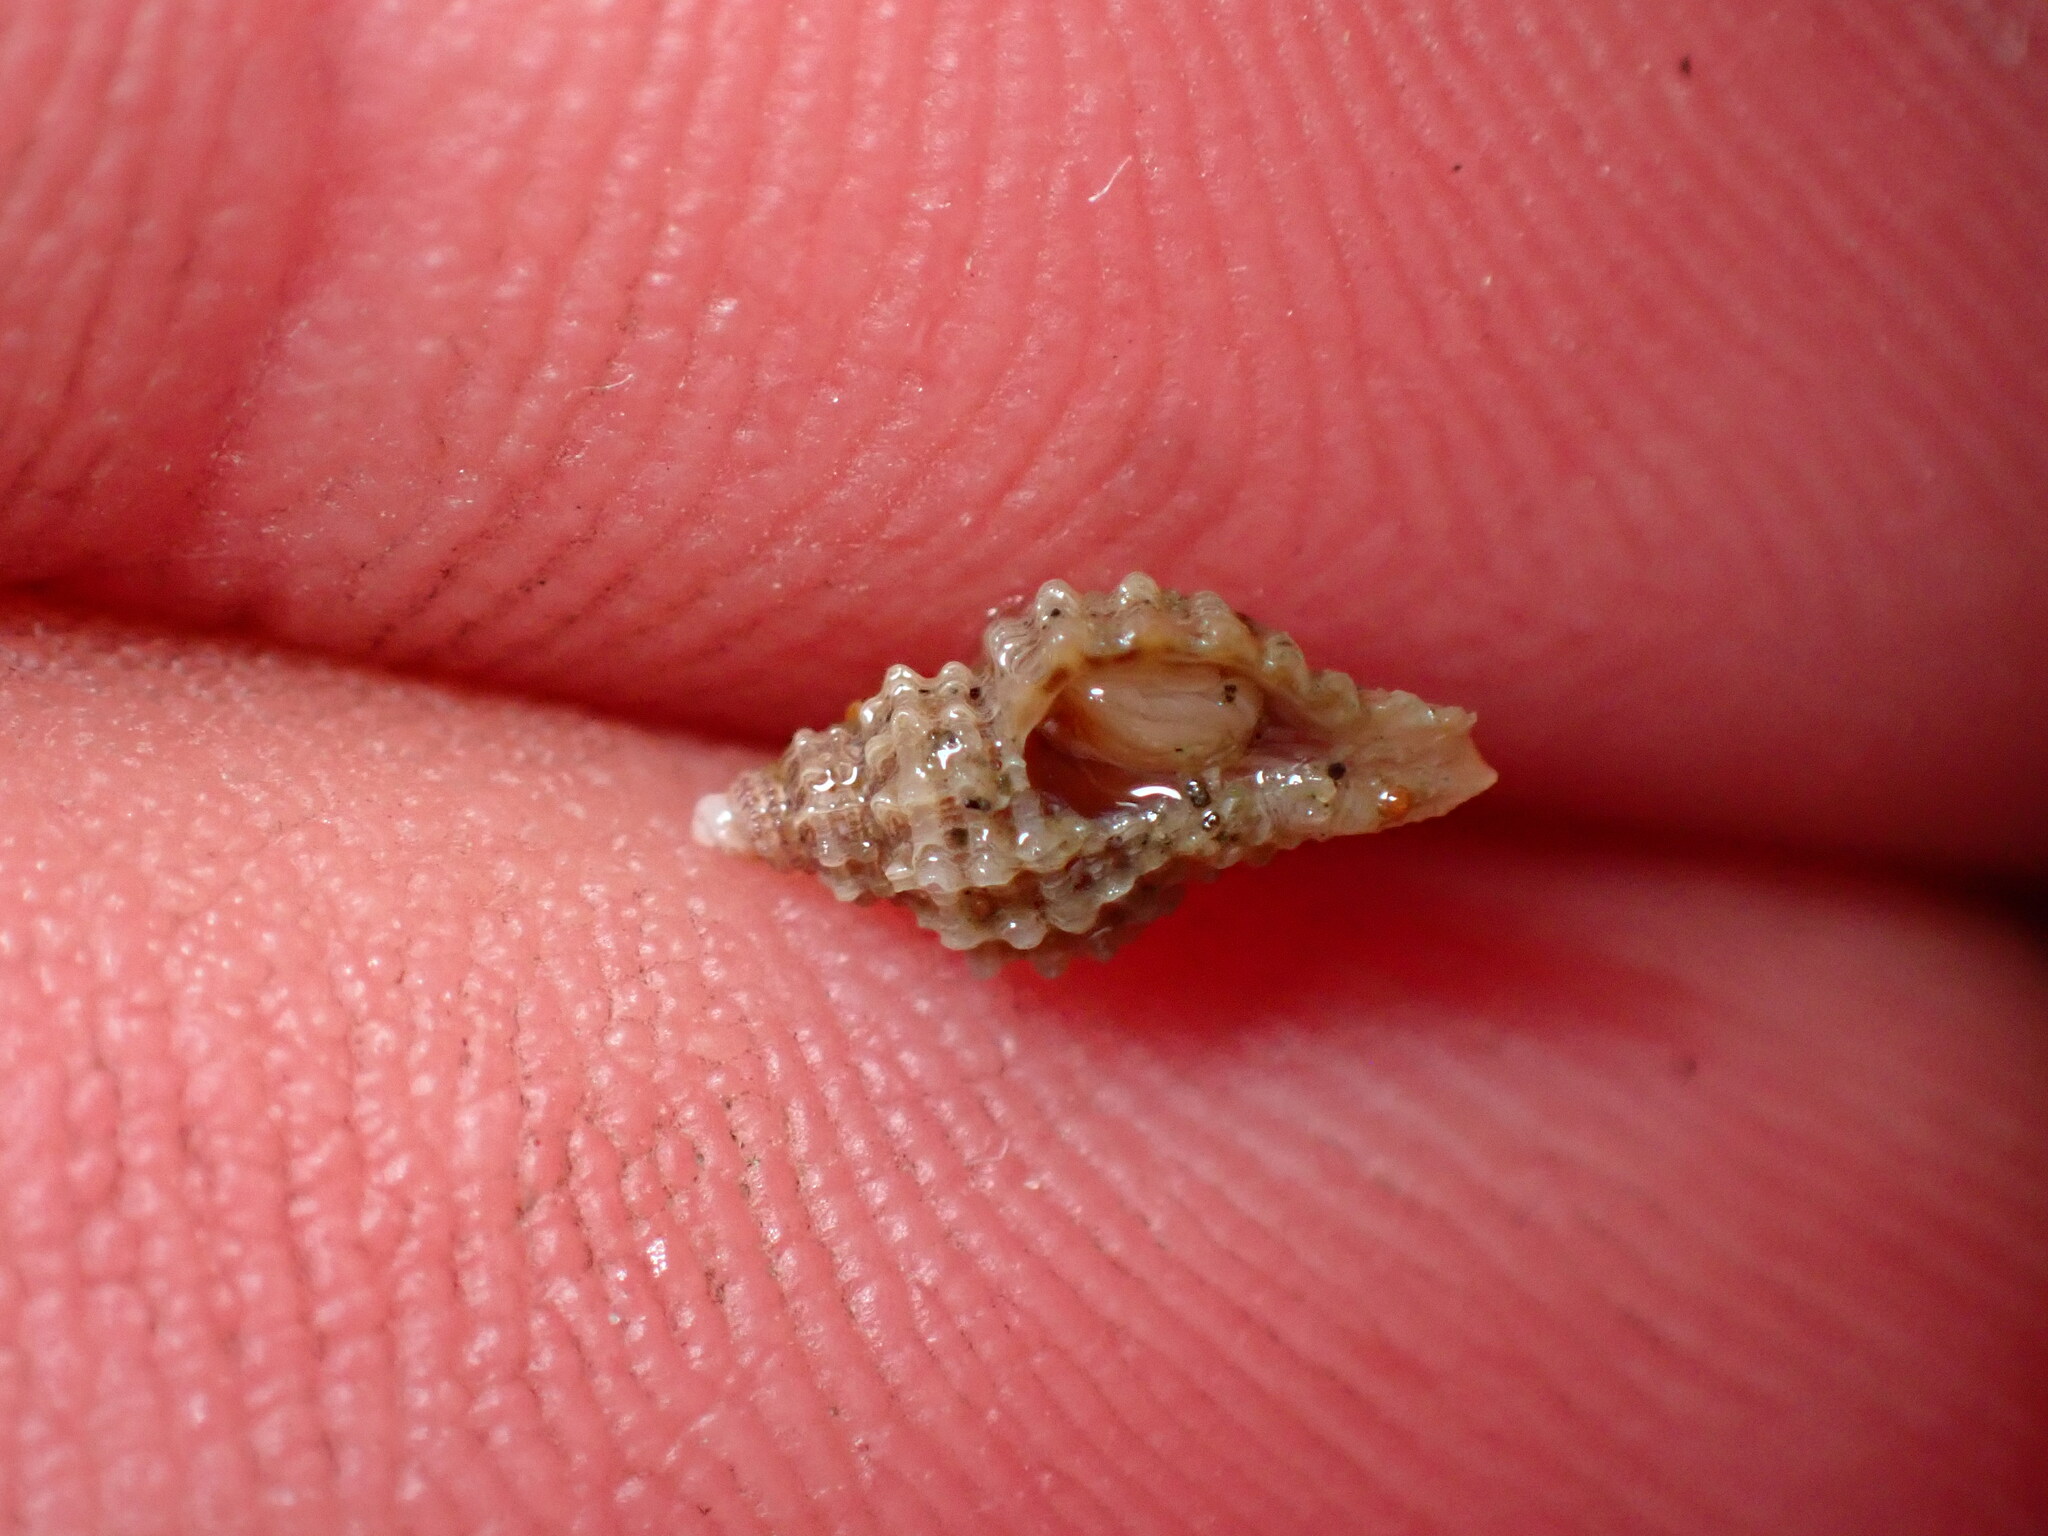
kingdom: Animalia
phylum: Mollusca
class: Gastropoda
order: Neogastropoda
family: Muricidae
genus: Paciocinebrina
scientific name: Paciocinebrina interfossa
